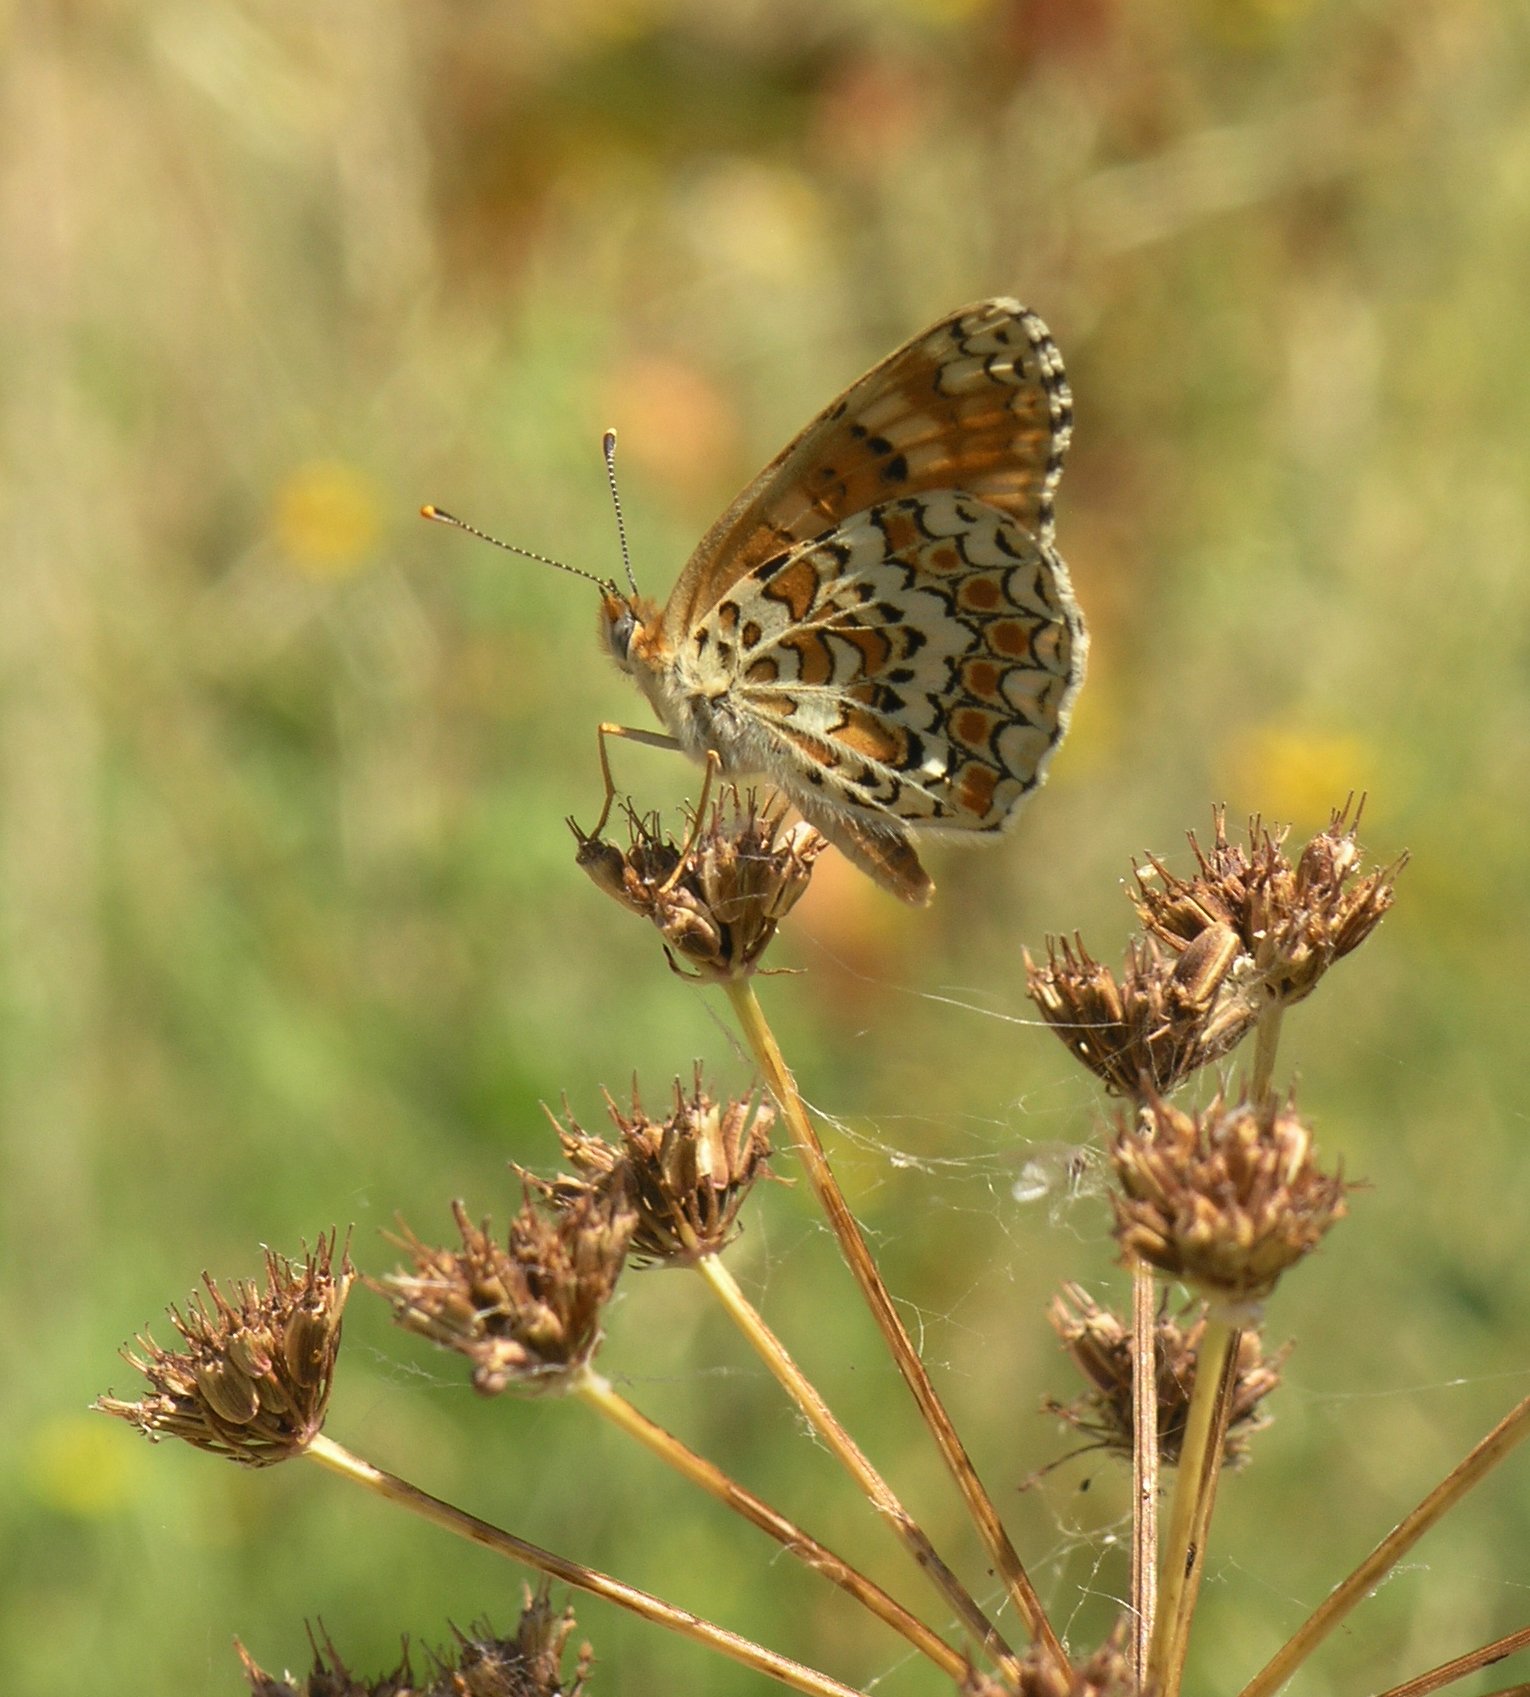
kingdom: Animalia
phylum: Arthropoda
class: Insecta
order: Lepidoptera
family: Nymphalidae
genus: Melitaea
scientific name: Melitaea phoebe
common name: Knapweed fritillary
